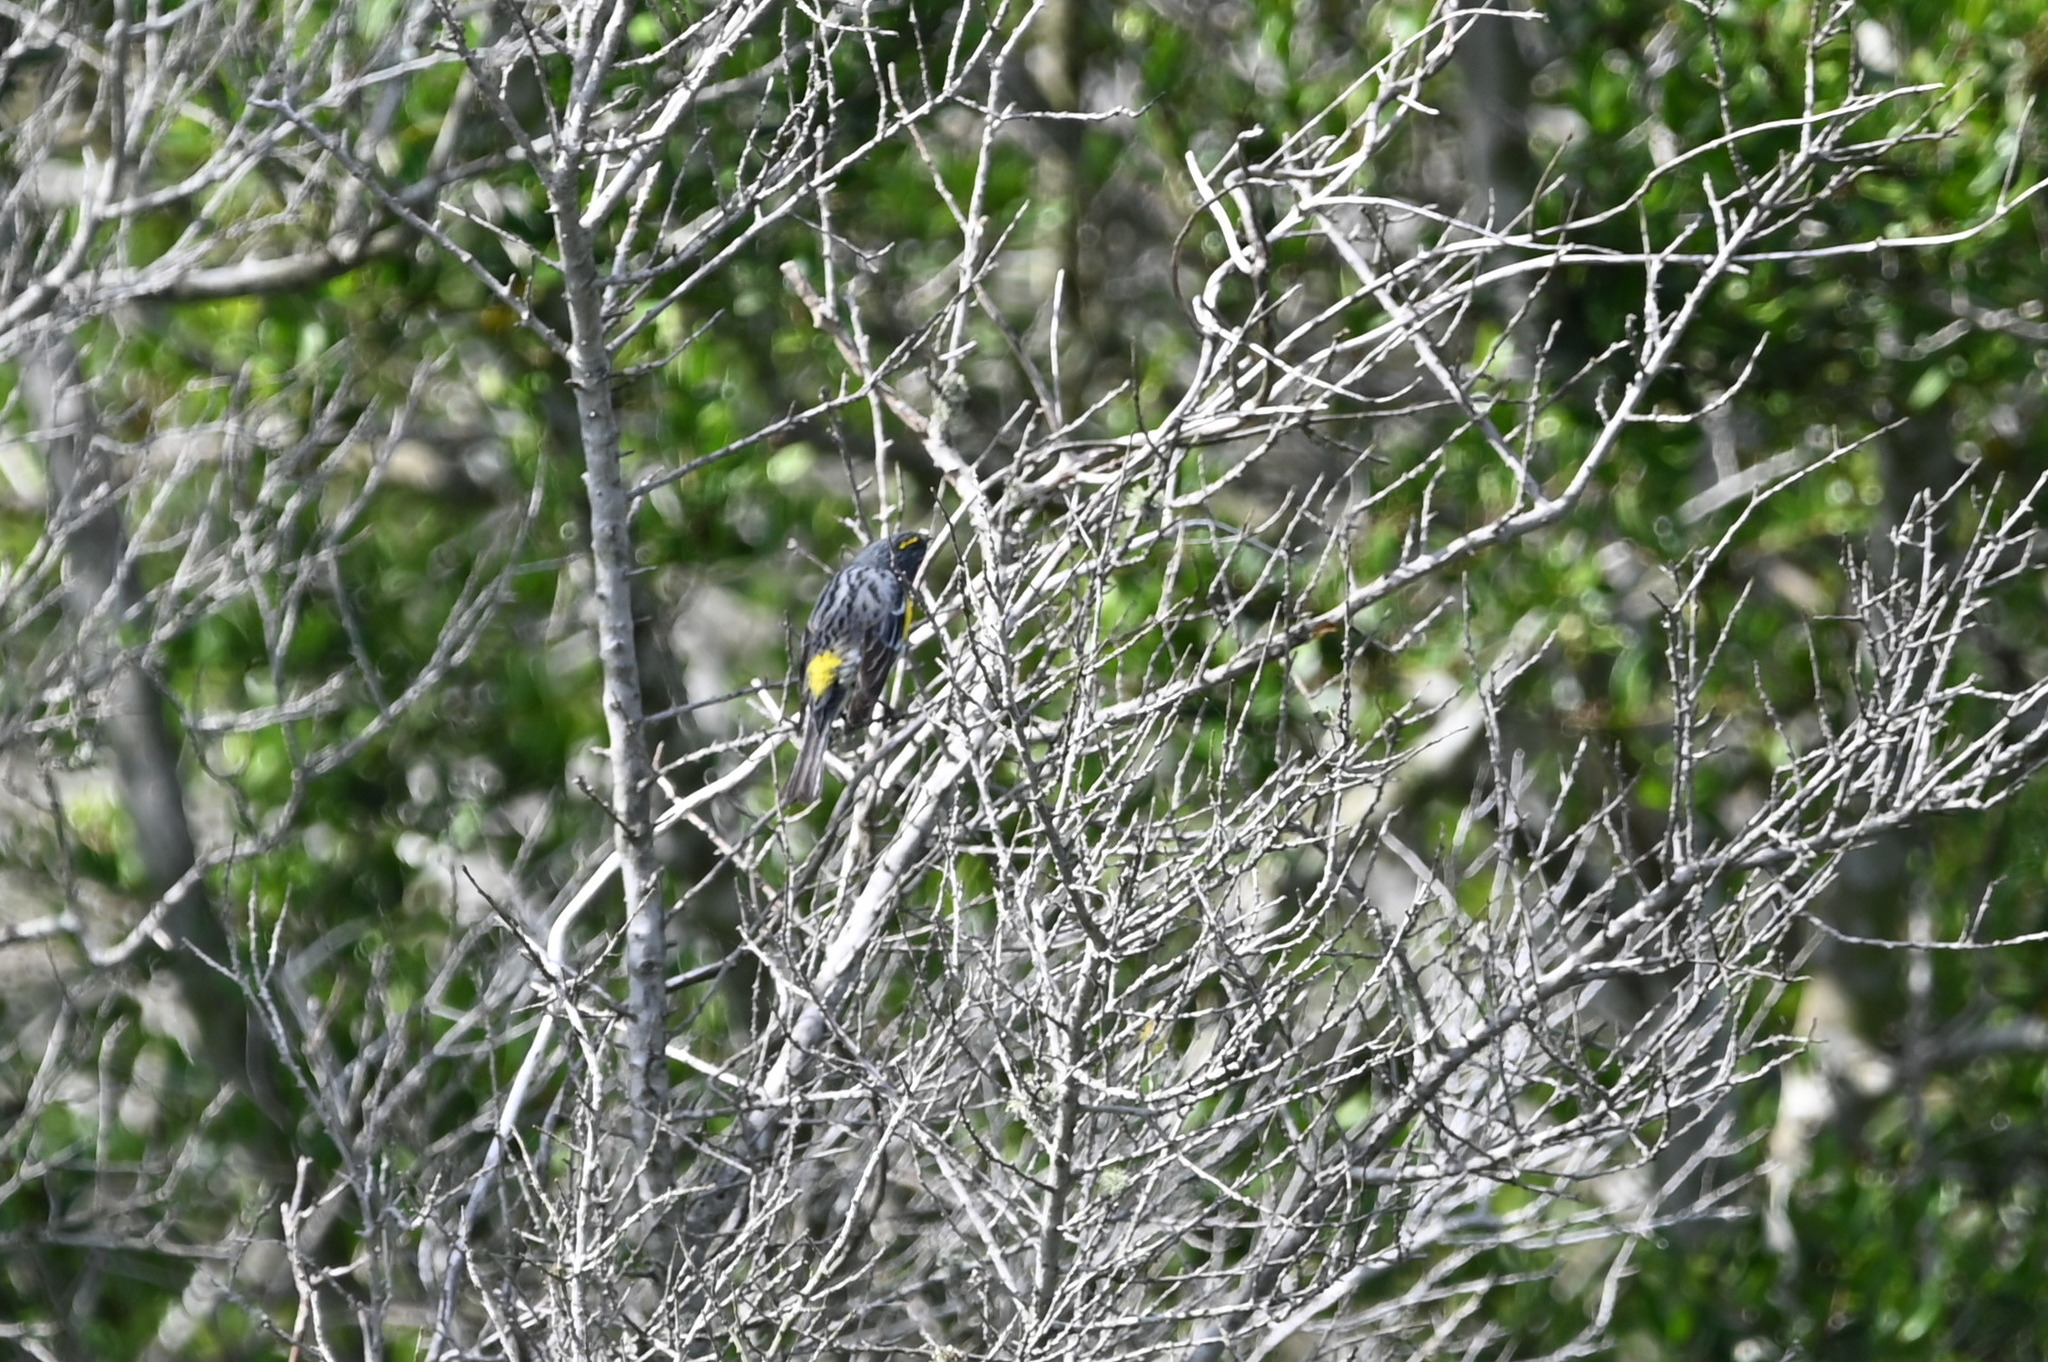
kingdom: Animalia
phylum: Chordata
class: Aves
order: Passeriformes
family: Parulidae
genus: Setophaga
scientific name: Setophaga coronata
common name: Myrtle warbler
